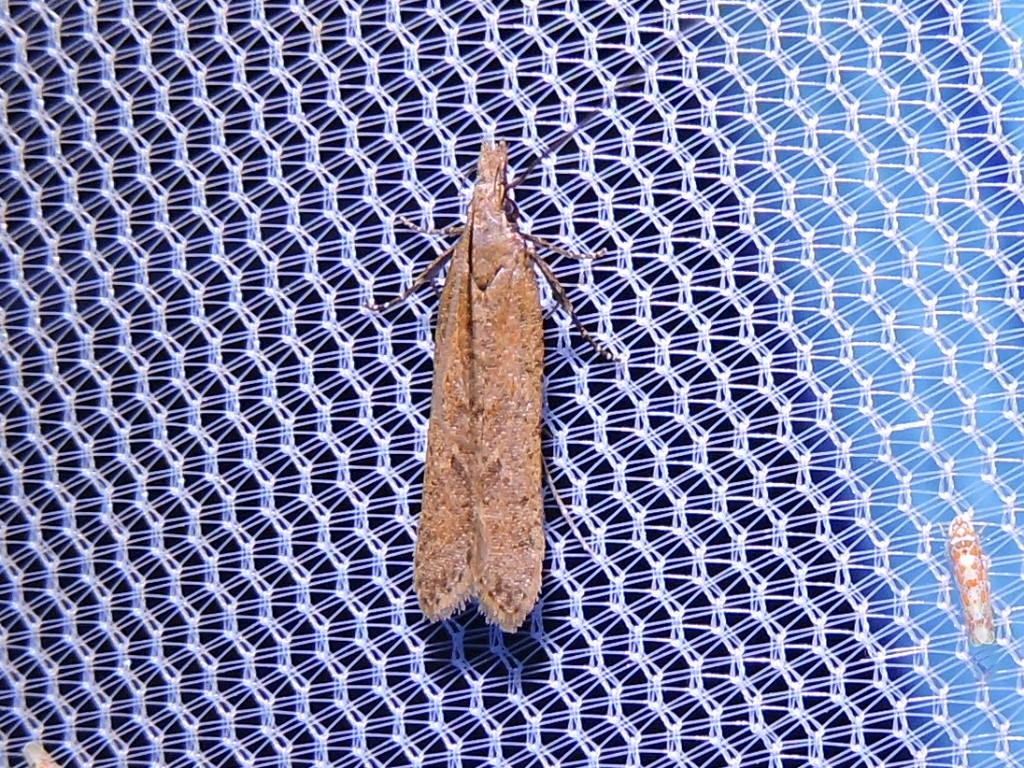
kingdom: Animalia
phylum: Arthropoda
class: Insecta
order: Lepidoptera
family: Gelechiidae
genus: Dichomeris
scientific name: Dichomeris ligulella
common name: Moth
